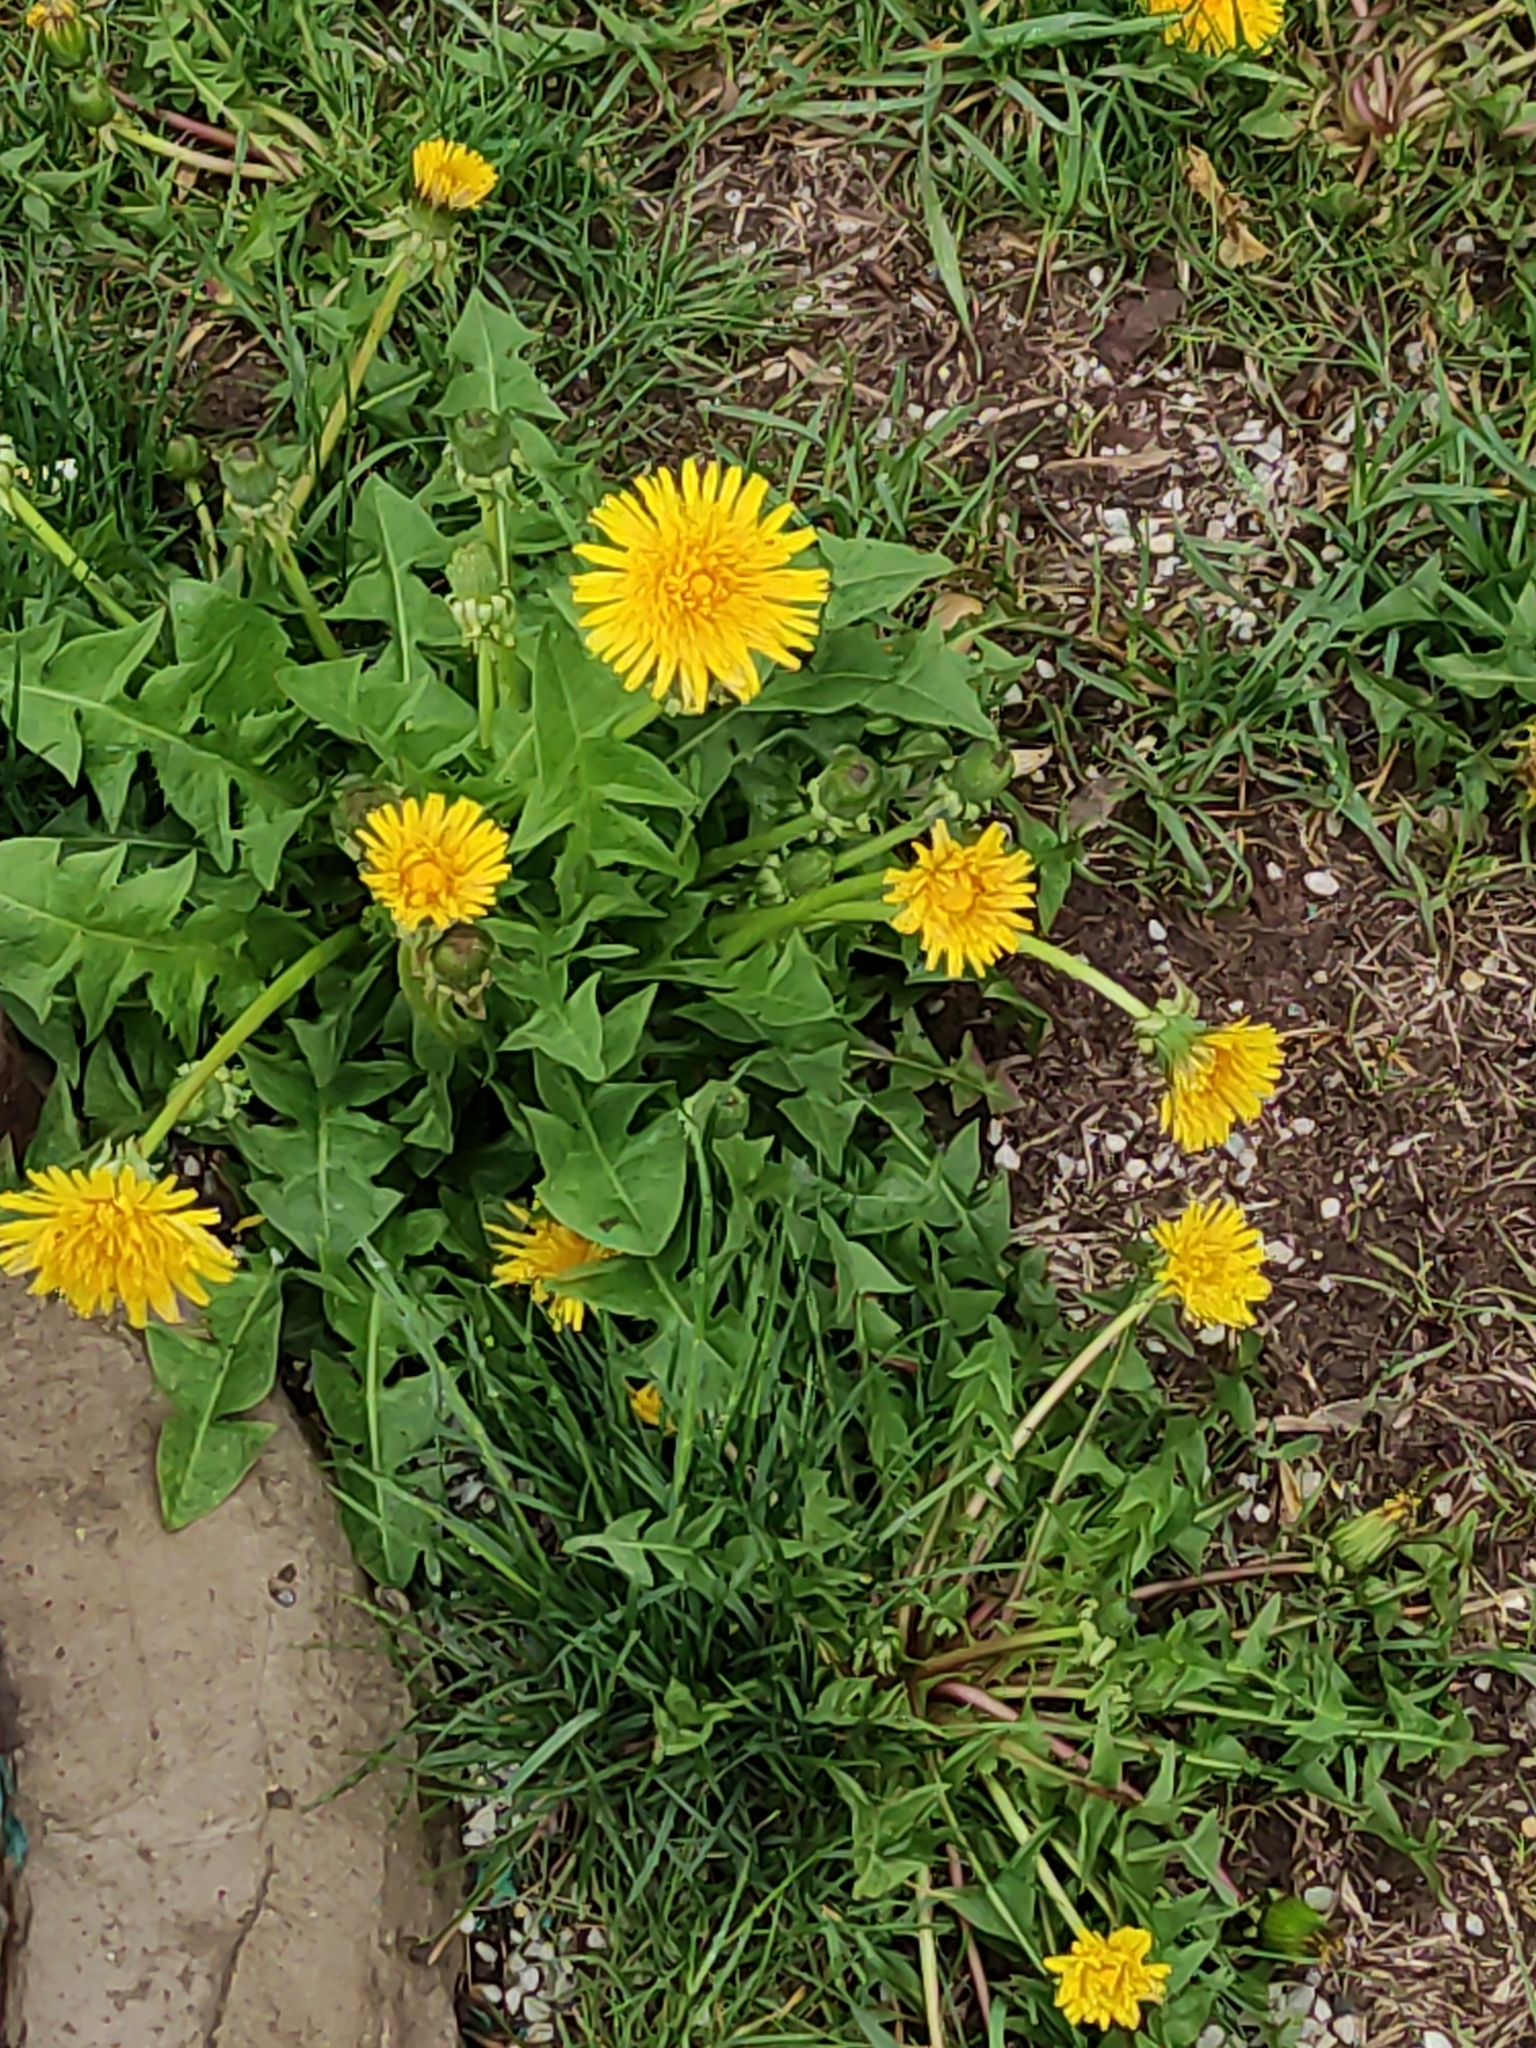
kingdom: Plantae
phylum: Tracheophyta
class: Magnoliopsida
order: Asterales
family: Asteraceae
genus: Taraxacum
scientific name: Taraxacum officinale
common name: Common dandelion
